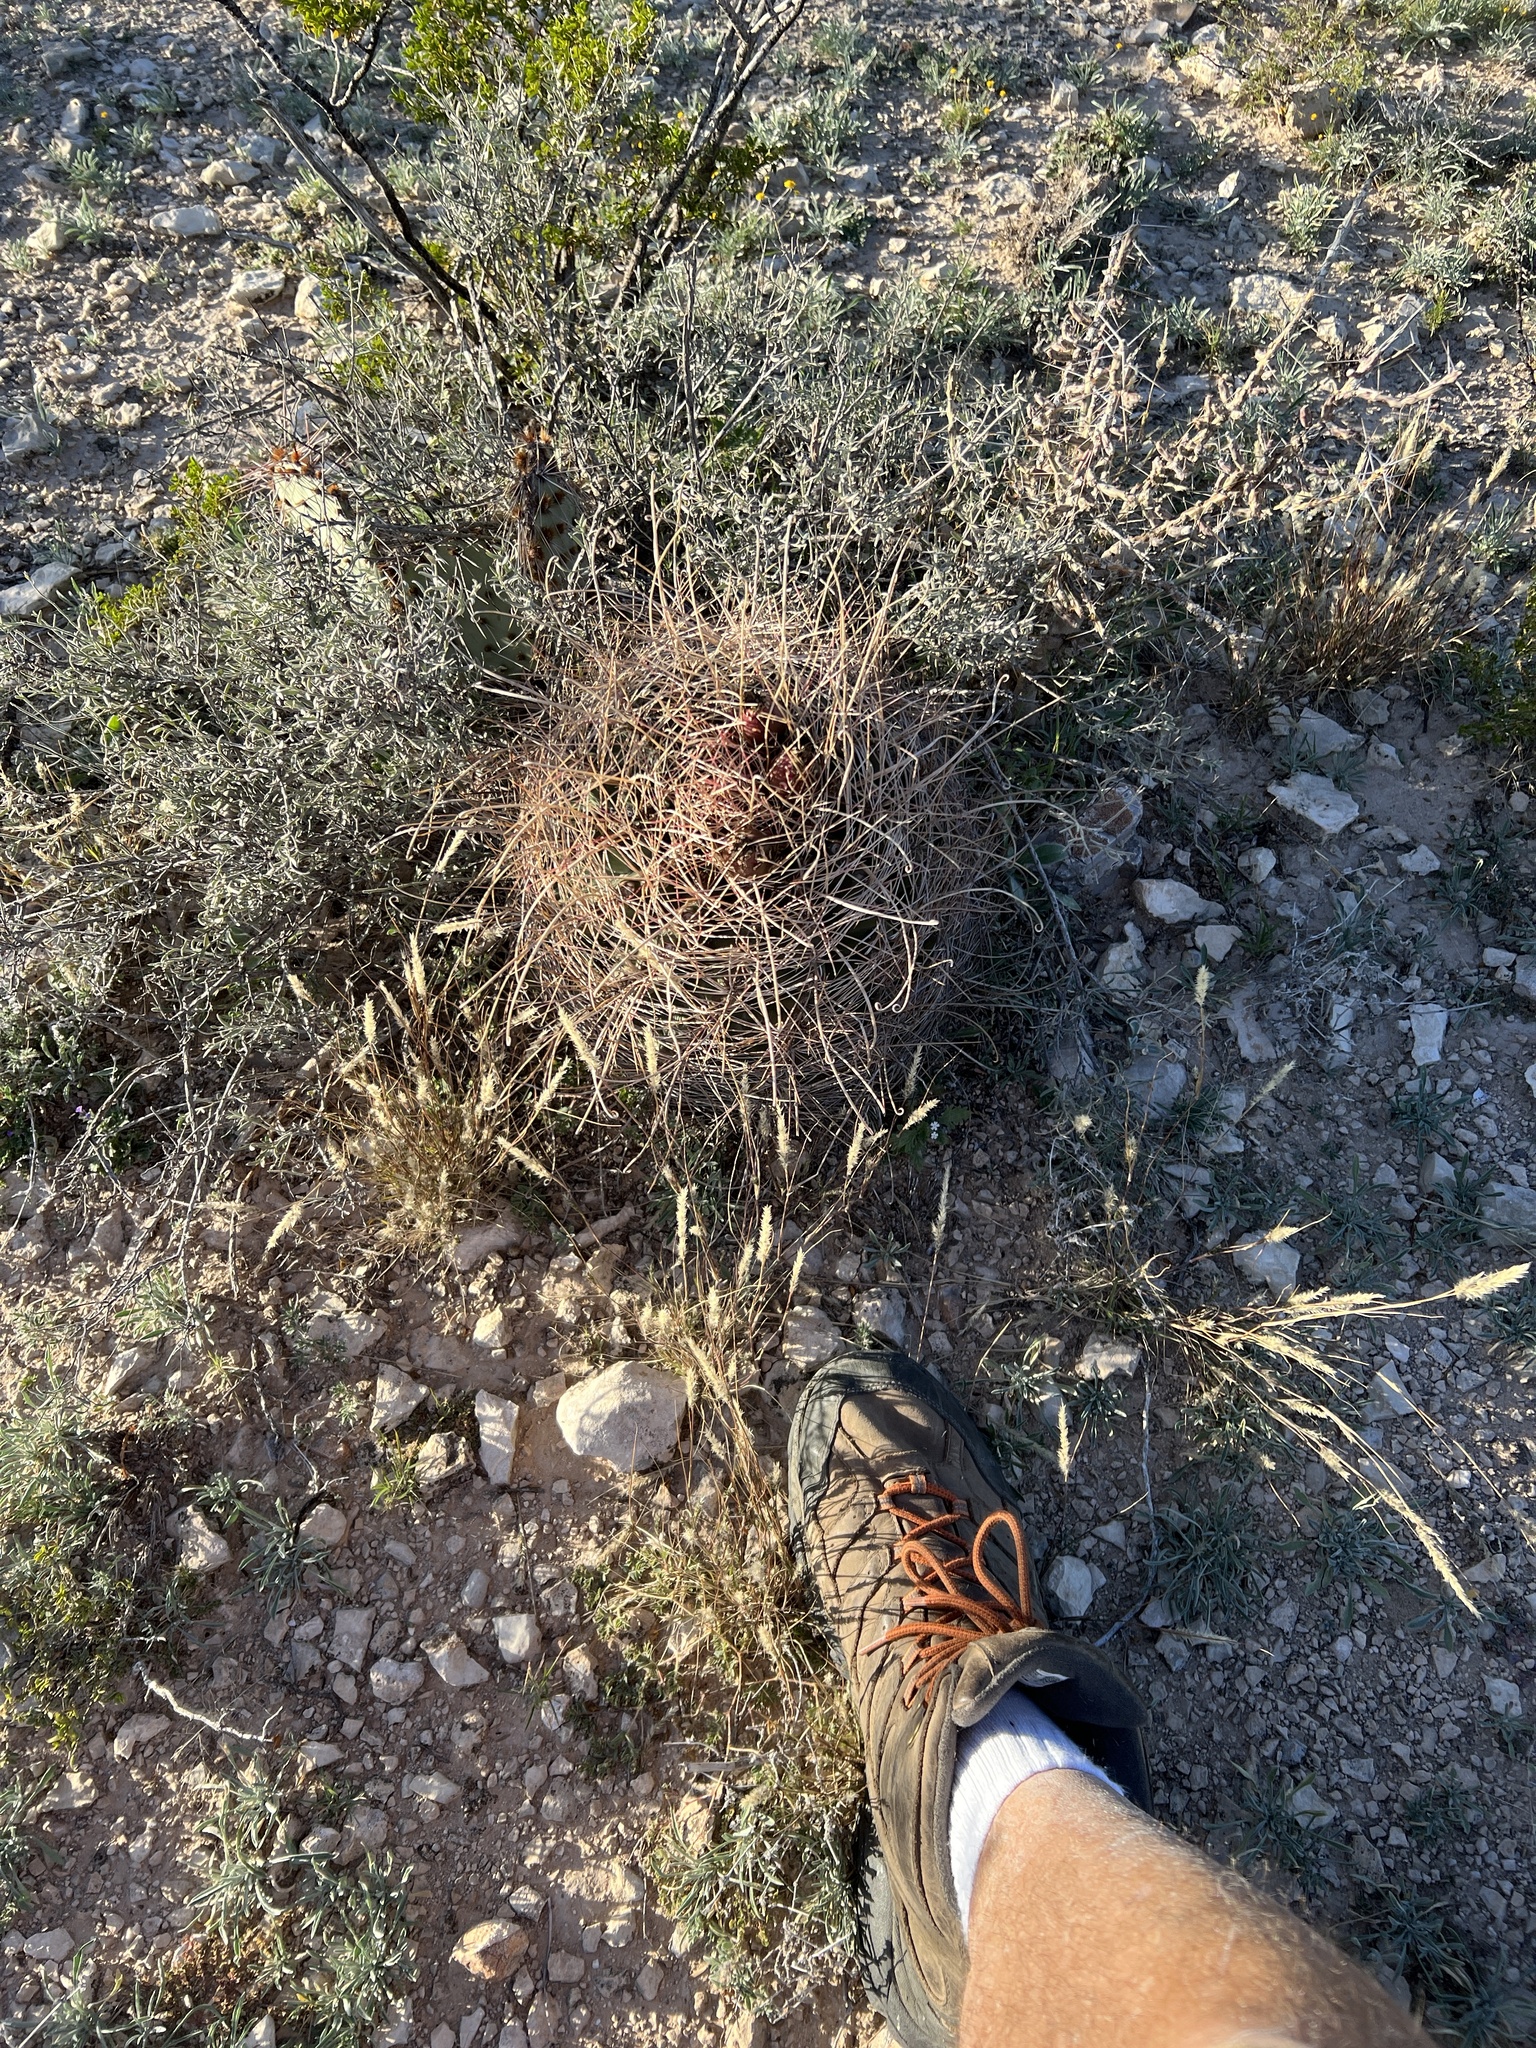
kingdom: Plantae
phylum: Tracheophyta
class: Magnoliopsida
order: Caryophyllales
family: Cactaceae
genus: Bisnaga
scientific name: Bisnaga hamatacantha
